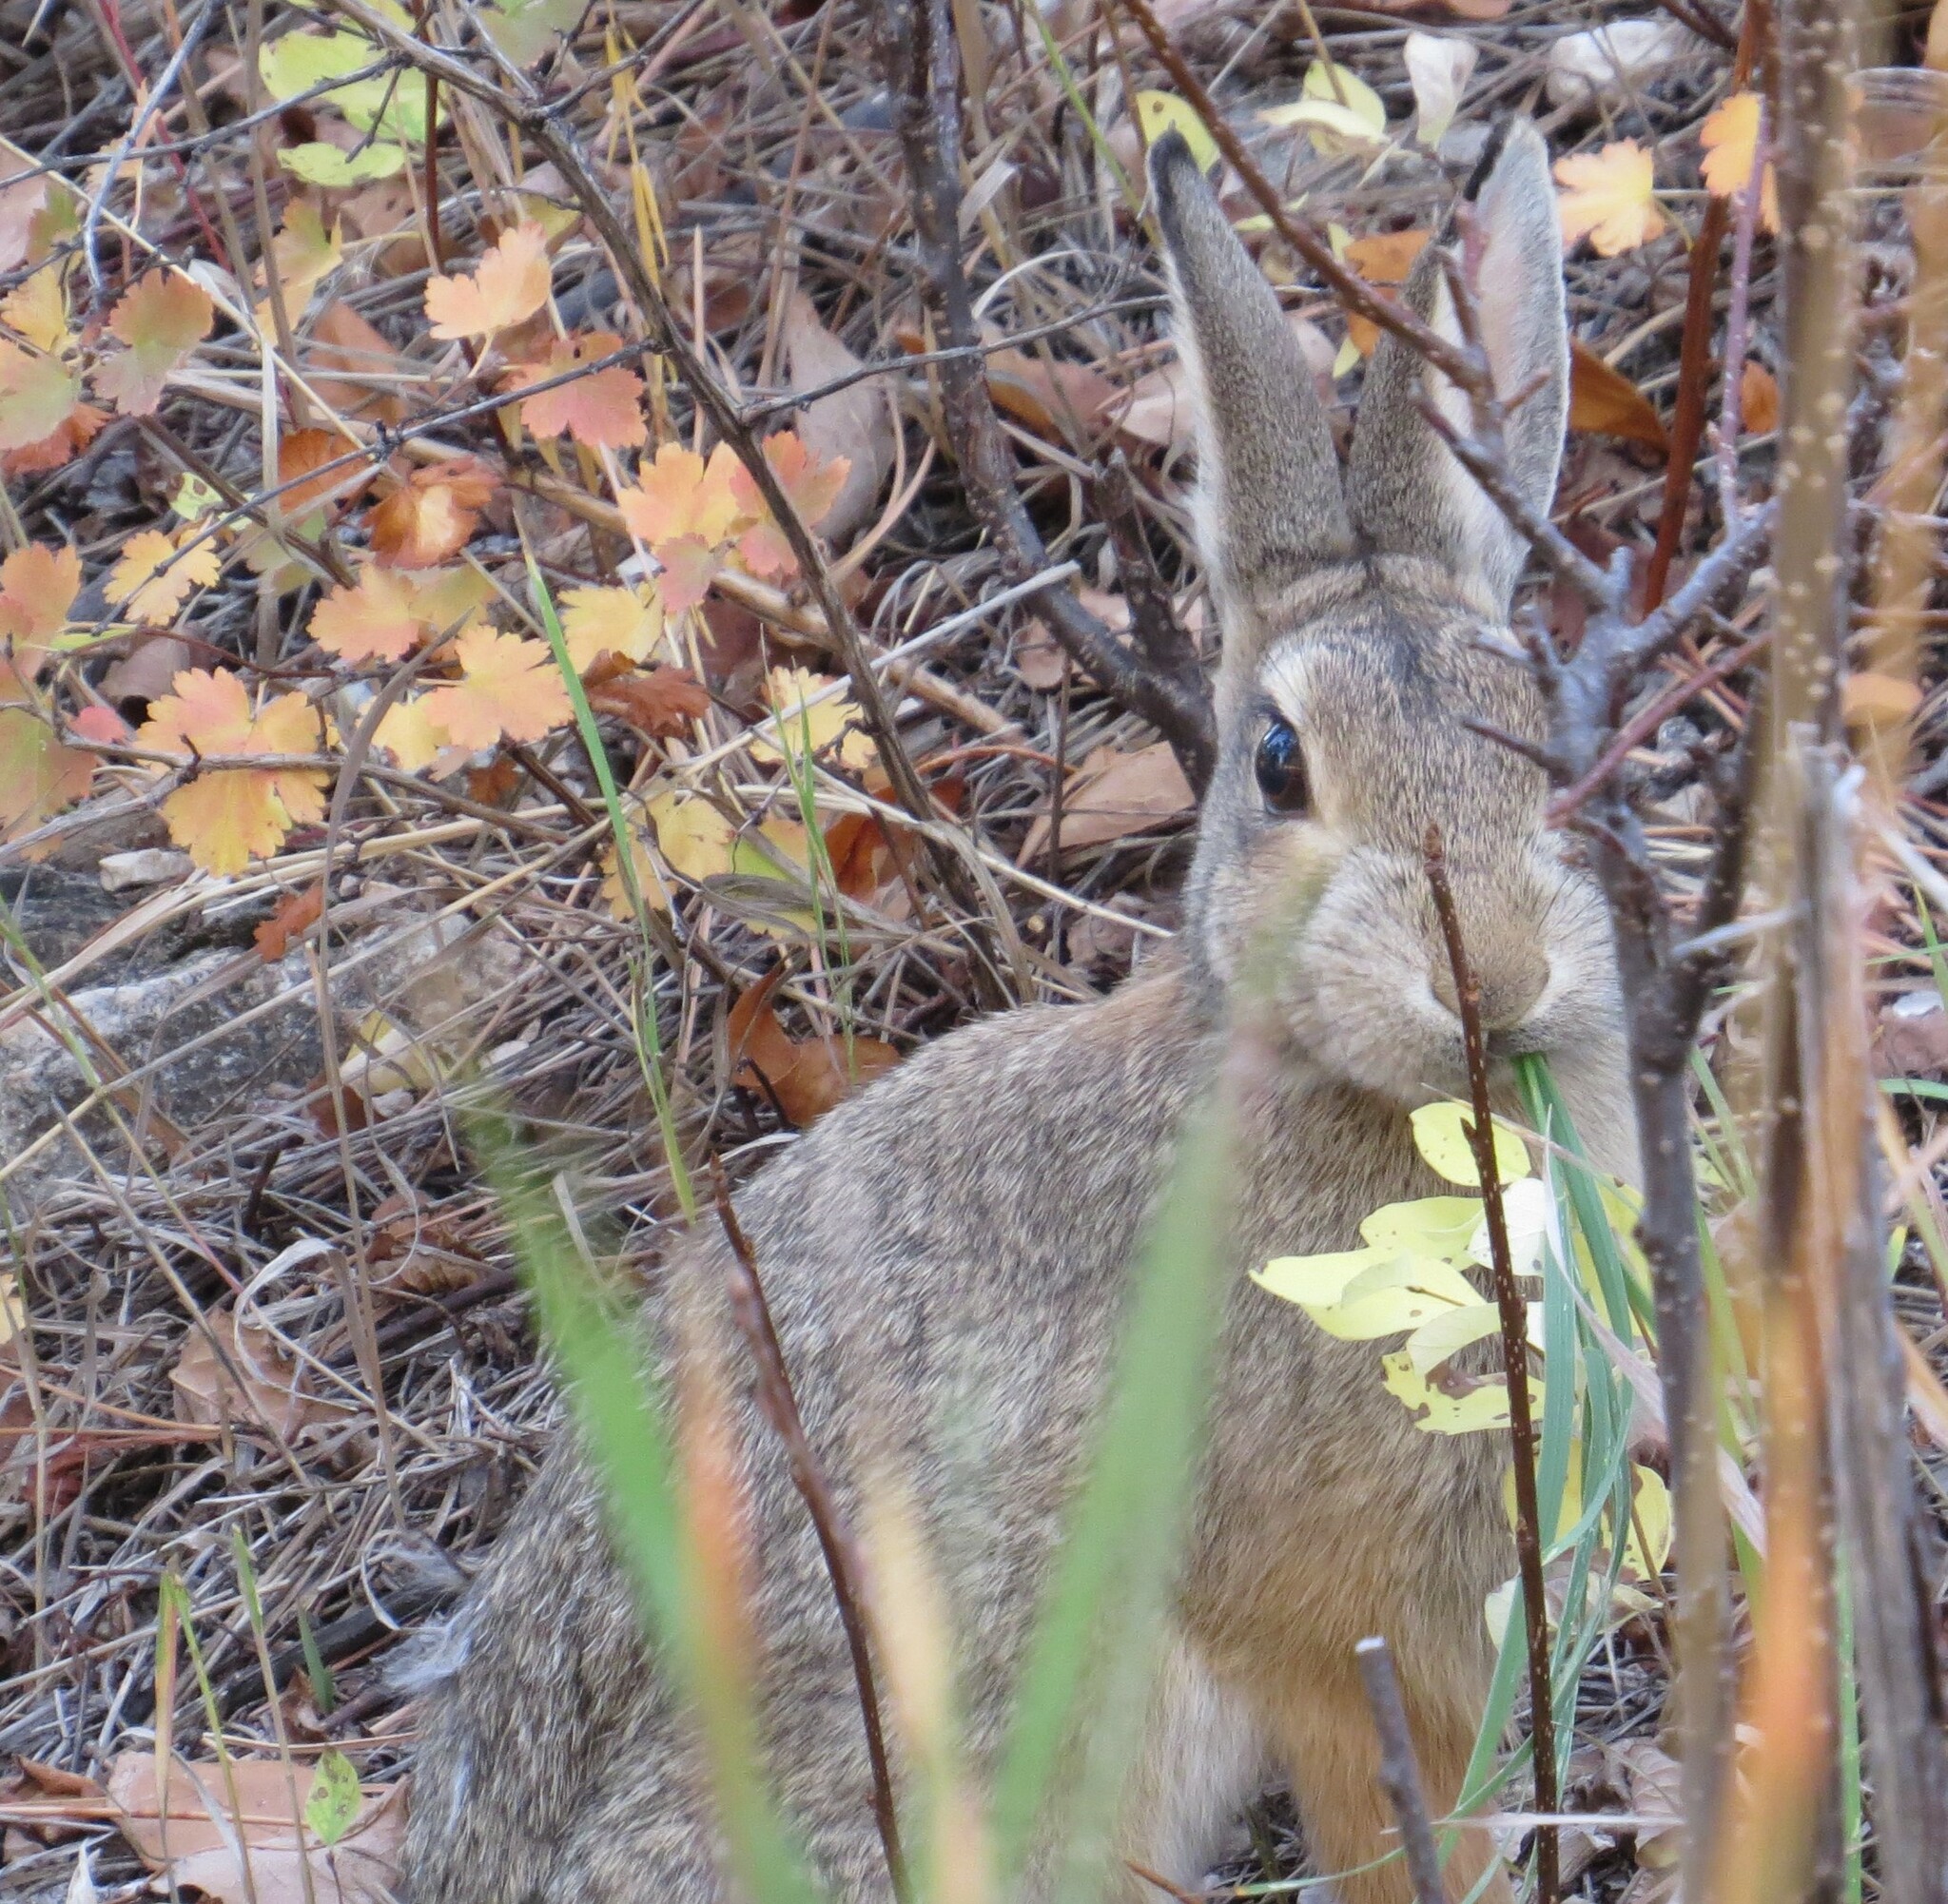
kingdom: Animalia
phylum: Chordata
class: Mammalia
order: Lagomorpha
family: Leporidae
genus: Sylvilagus
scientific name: Sylvilagus audubonii
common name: Desert cottontail
